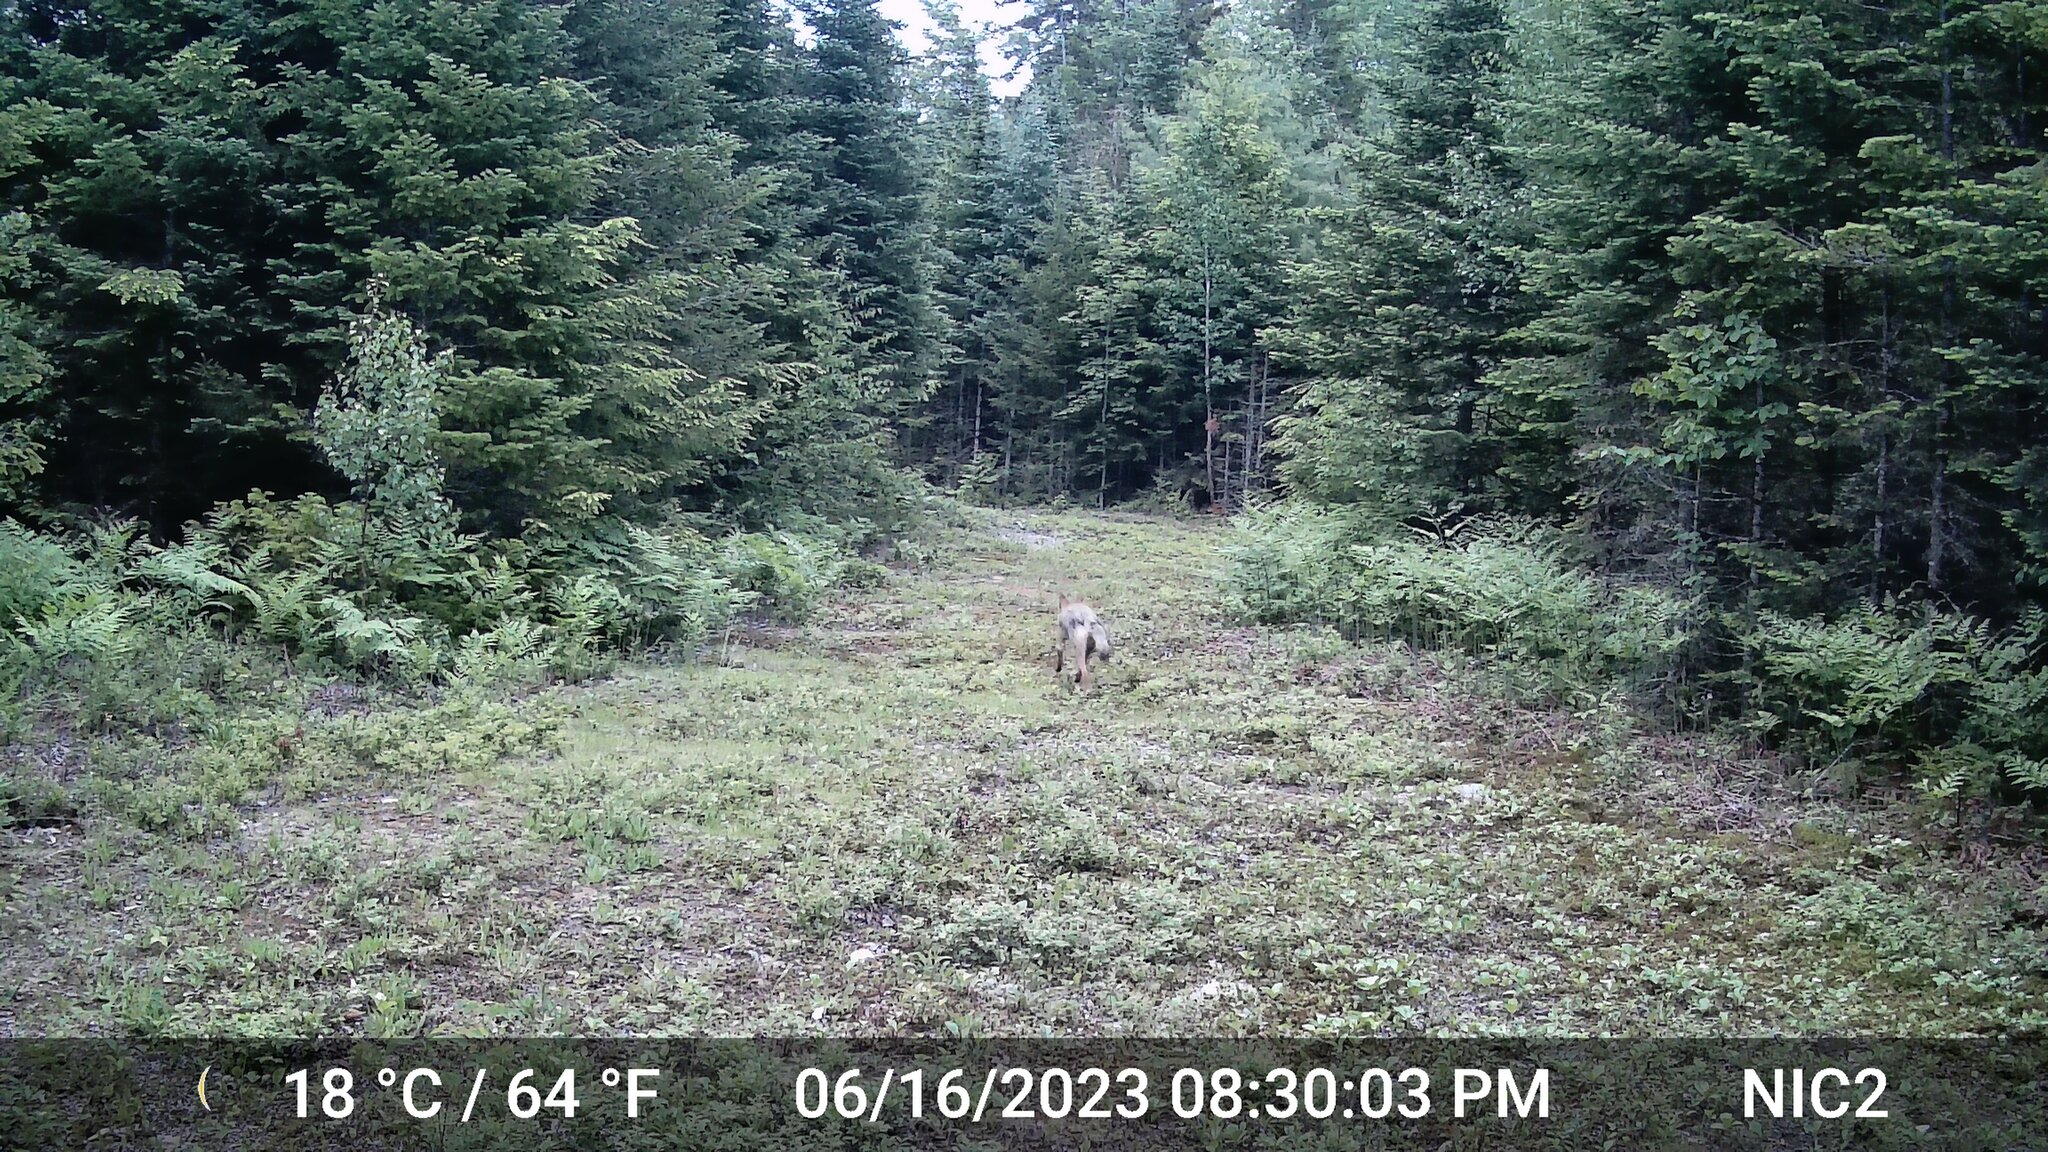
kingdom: Animalia
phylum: Chordata
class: Mammalia
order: Carnivora
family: Canidae
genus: Canis
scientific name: Canis latrans
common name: Coyote
